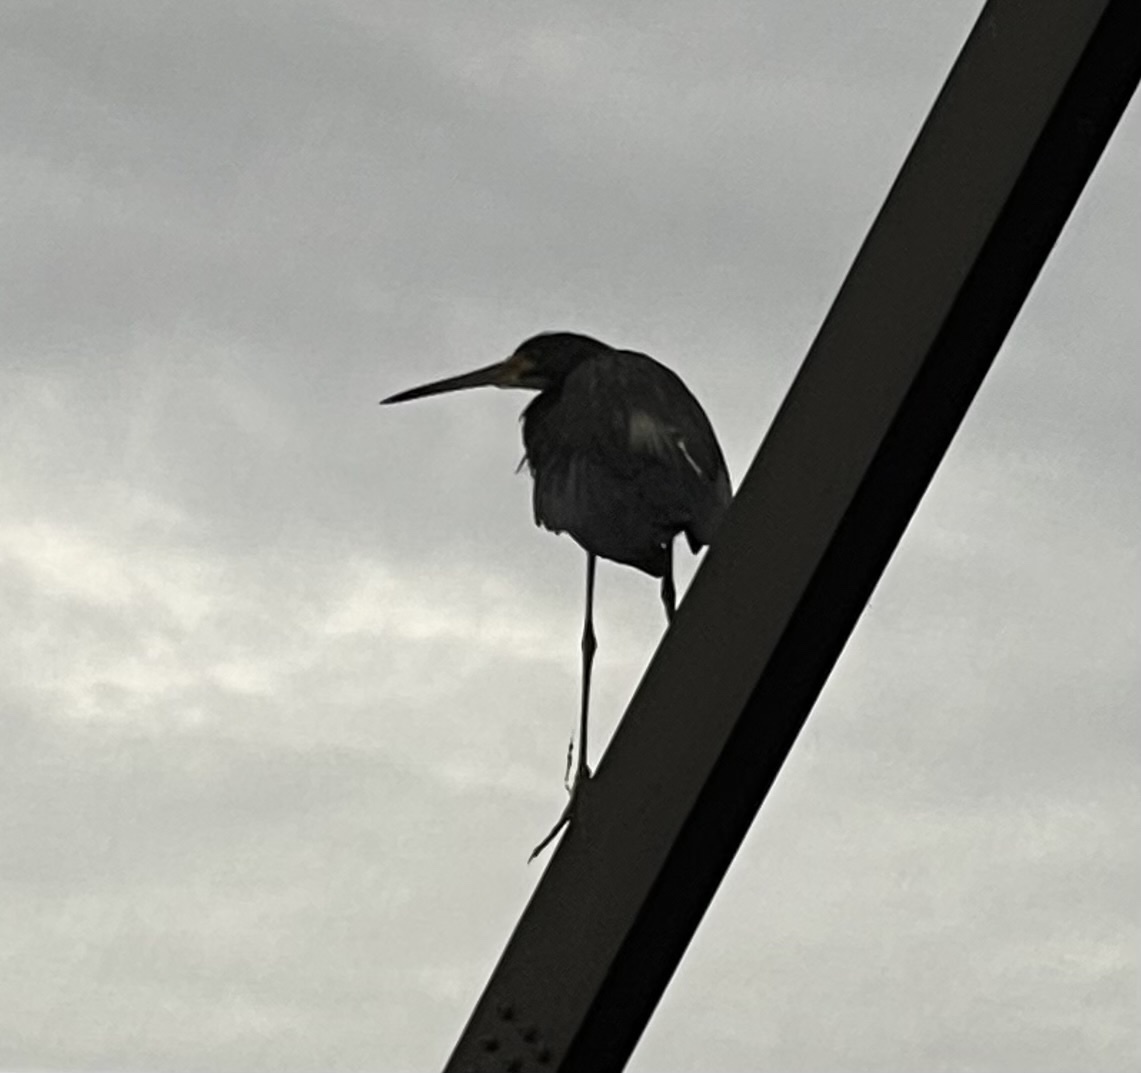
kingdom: Animalia
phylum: Chordata
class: Aves
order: Pelecaniformes
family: Ardeidae
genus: Egretta
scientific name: Egretta tricolor
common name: Tricolored heron
